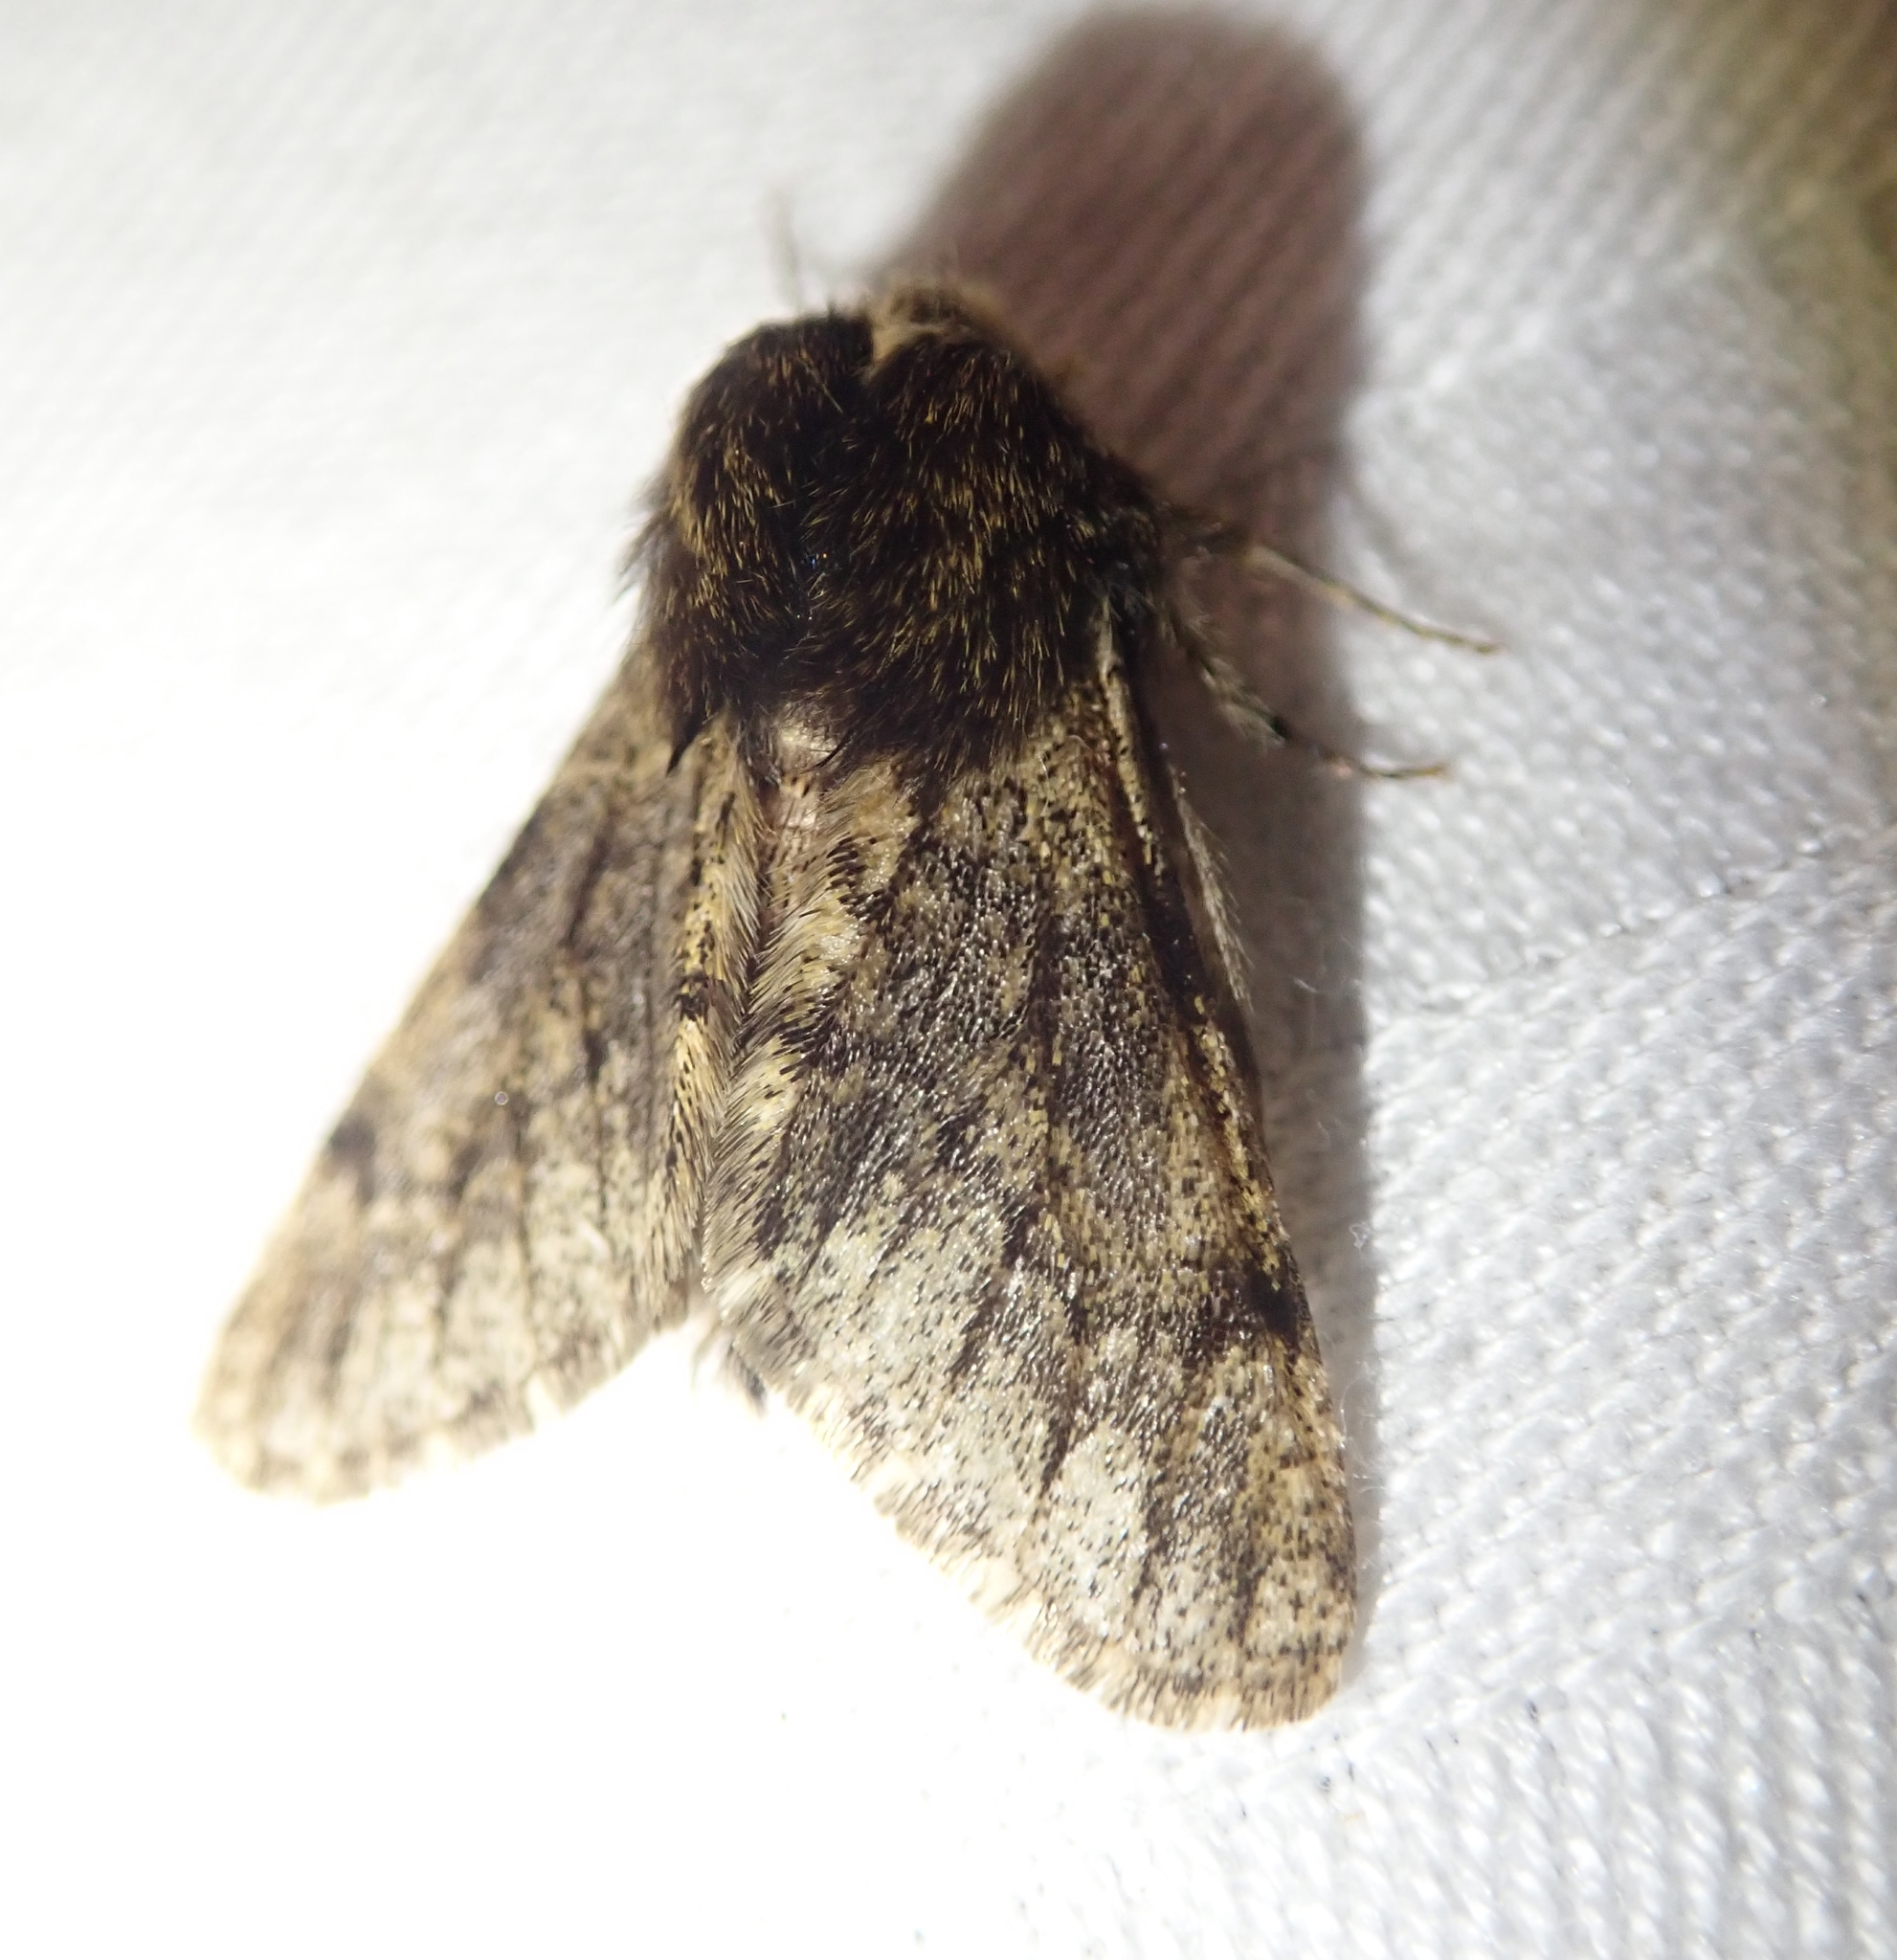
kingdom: Animalia
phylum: Arthropoda
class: Insecta
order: Lepidoptera
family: Geometridae
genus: Apocheima
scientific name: Apocheima hispidaria
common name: Small brindled beauty
